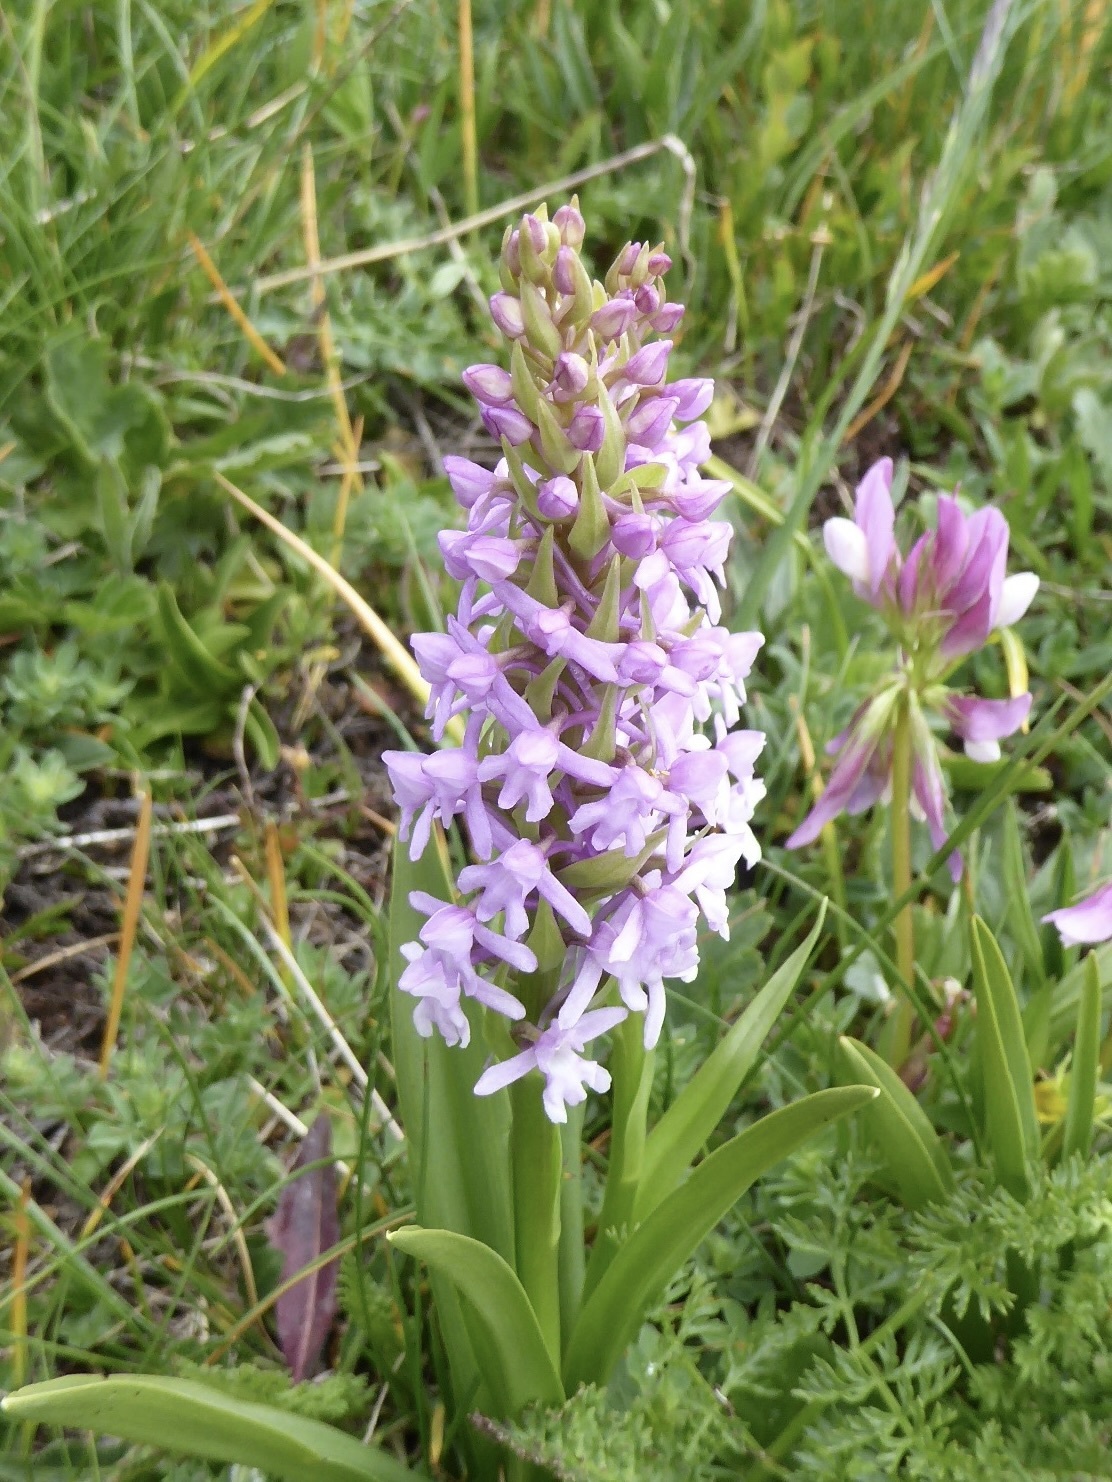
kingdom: Plantae
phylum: Tracheophyta
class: Liliopsida
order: Asparagales
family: Orchidaceae
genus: Gymnadenia
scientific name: Gymnadenia conopsea
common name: Fragrant orchid
